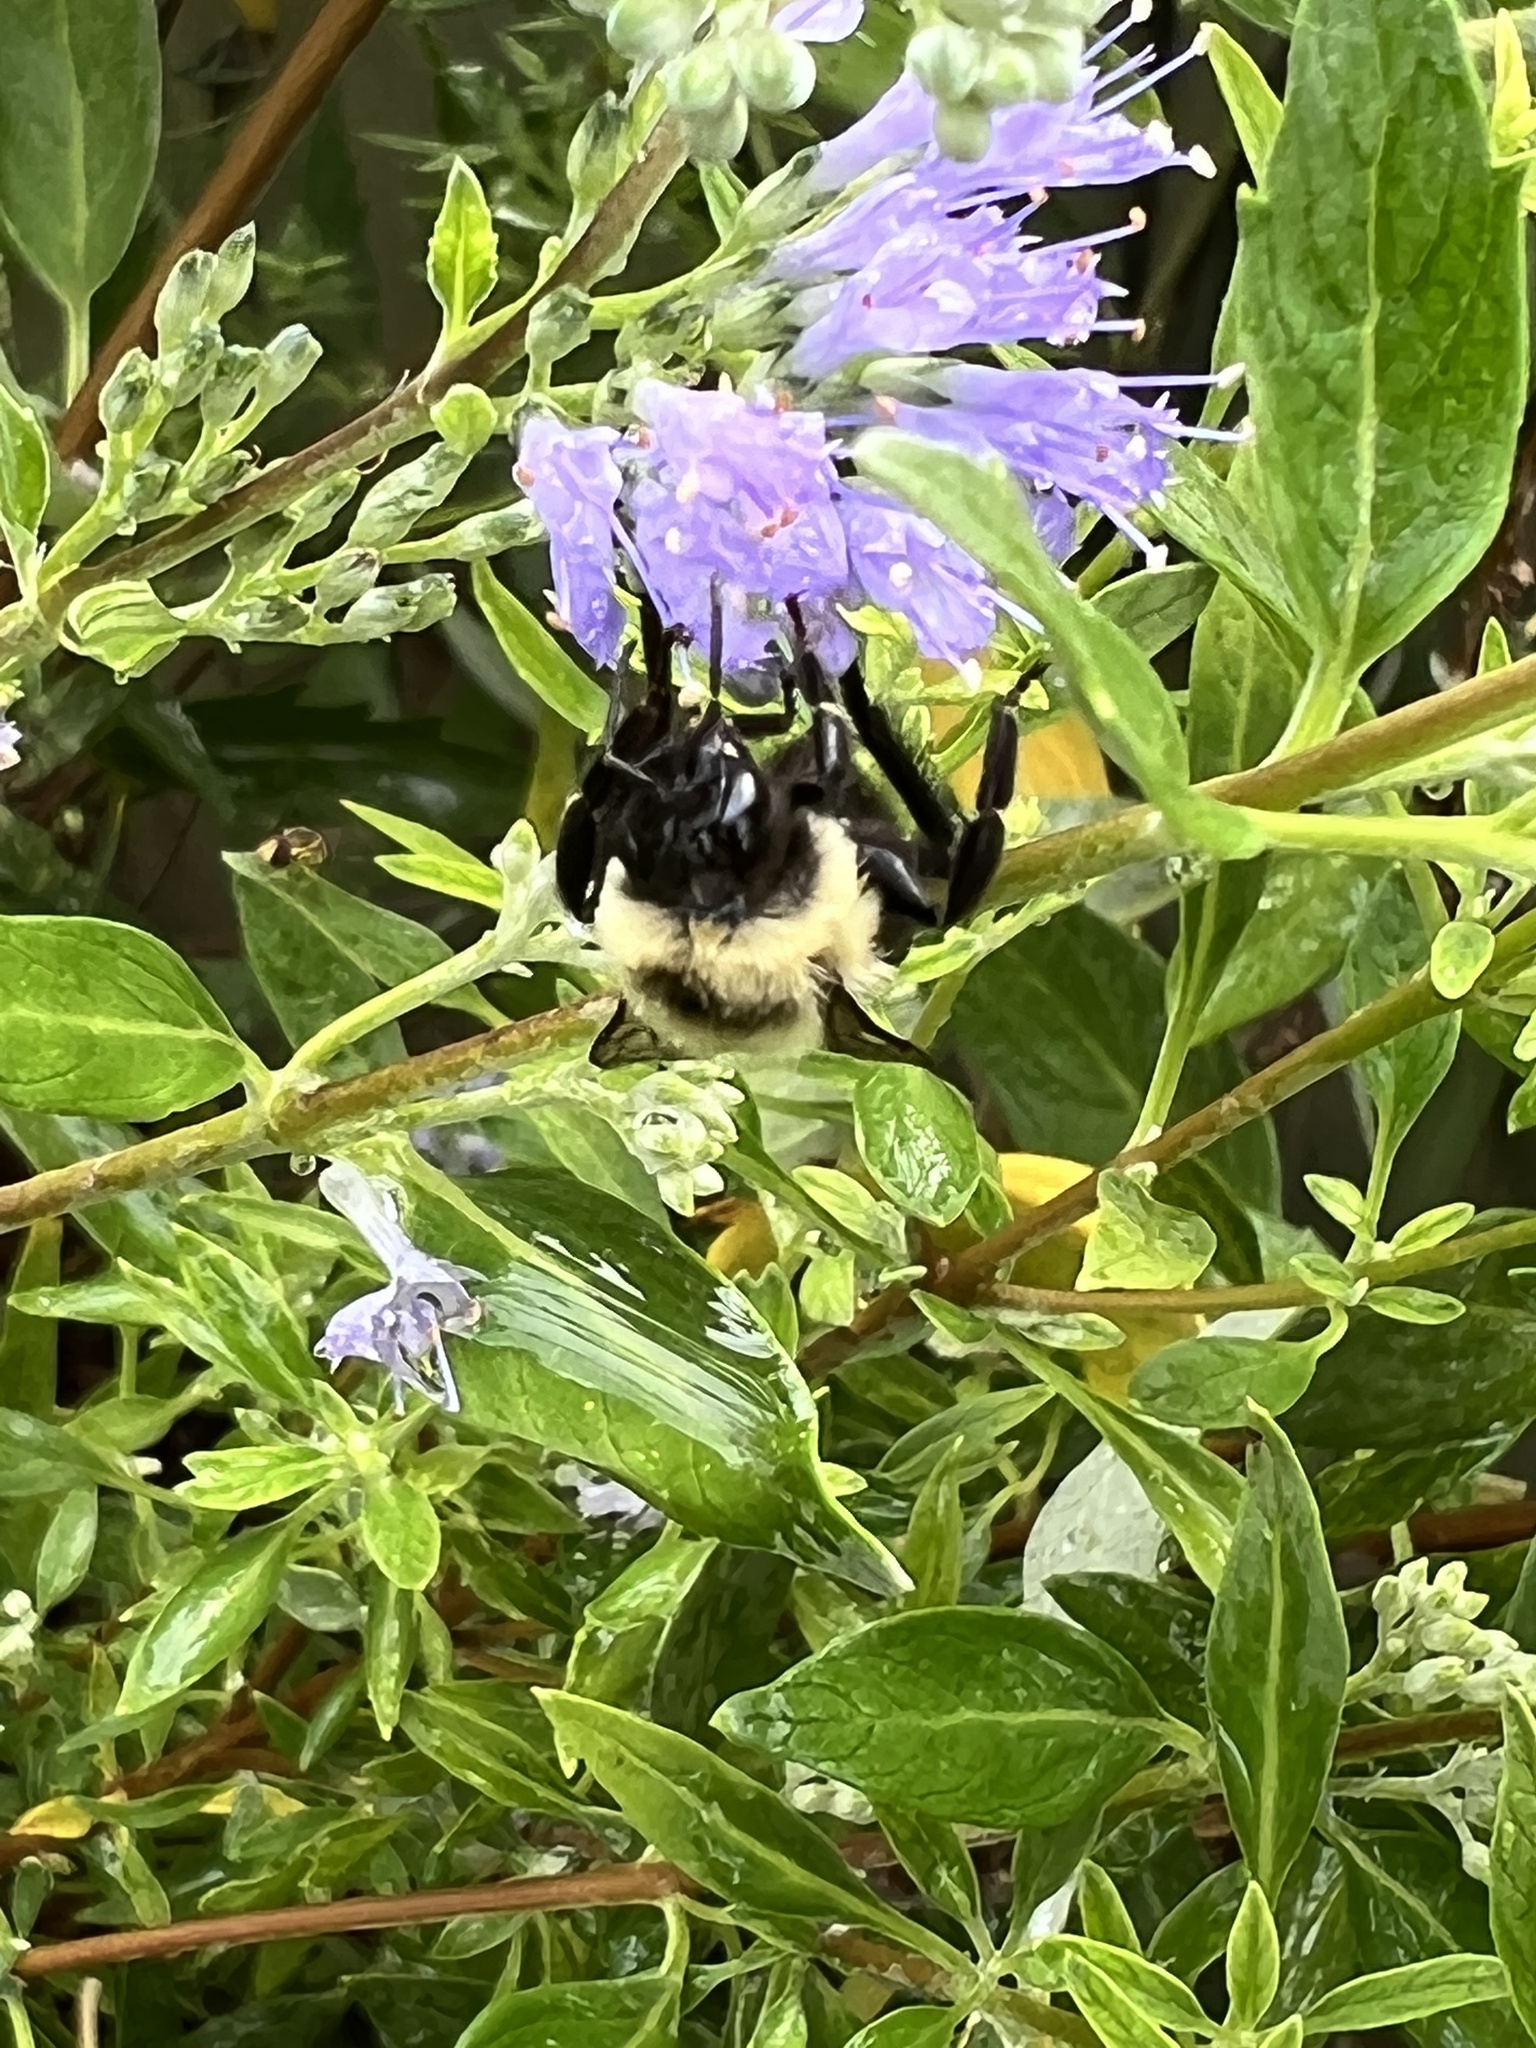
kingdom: Animalia
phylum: Arthropoda
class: Insecta
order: Hymenoptera
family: Apidae
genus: Bombus
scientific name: Bombus impatiens
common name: Common eastern bumble bee
